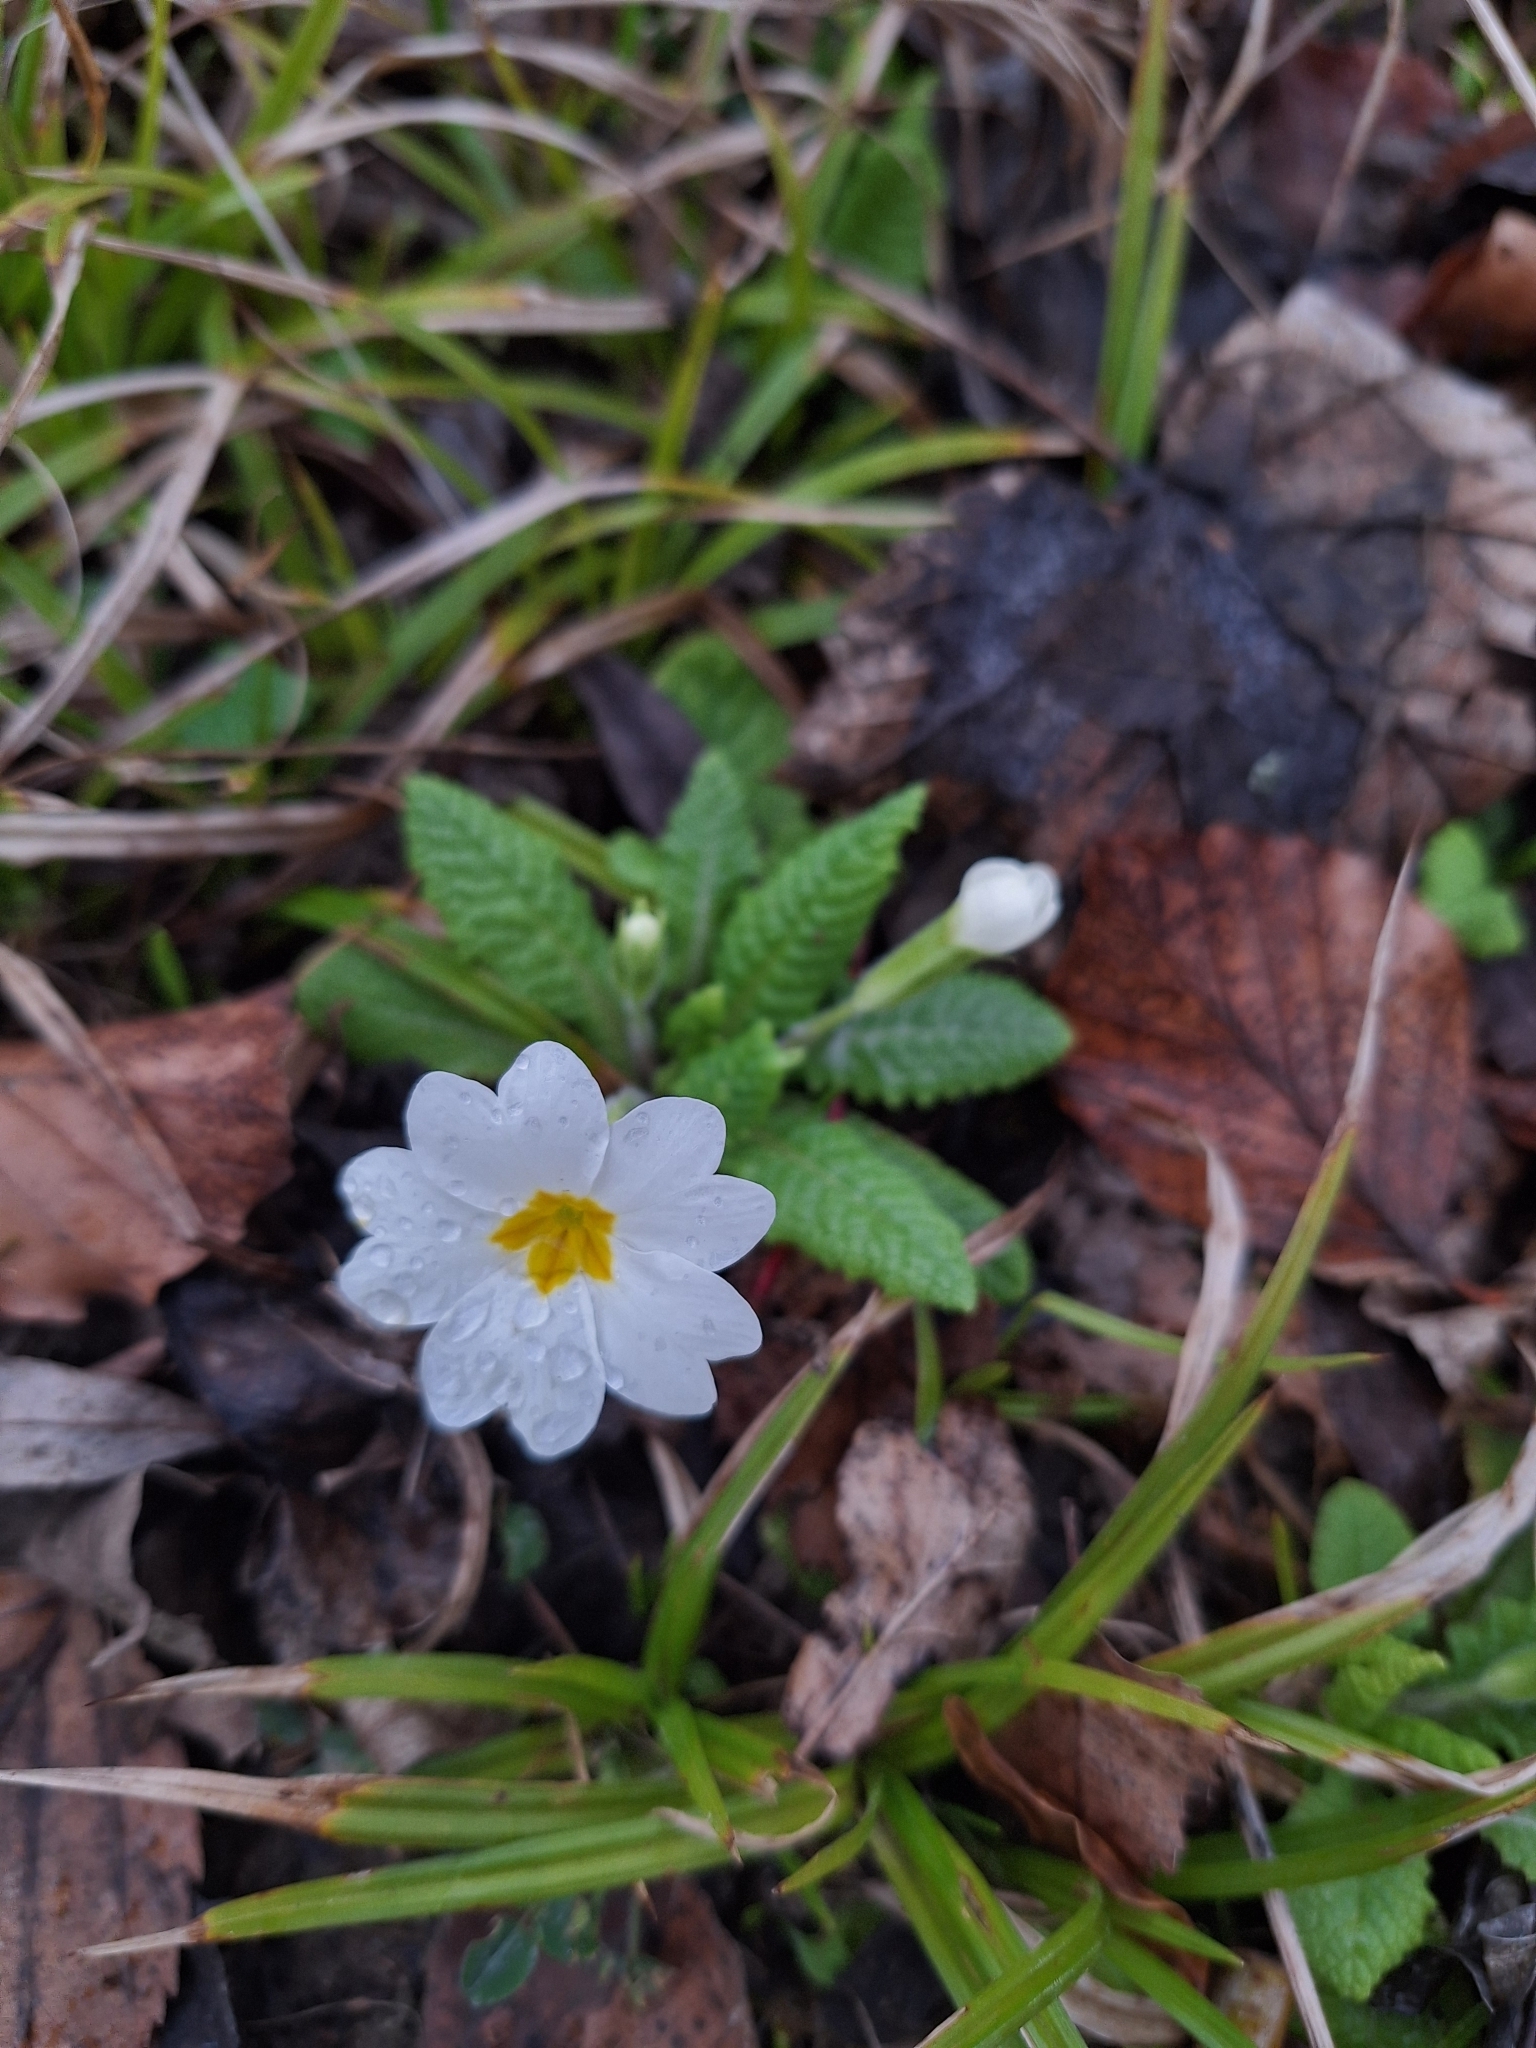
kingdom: Plantae
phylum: Tracheophyta
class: Magnoliopsida
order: Ericales
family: Primulaceae
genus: Primula
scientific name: Primula vulgaris
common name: Primrose
